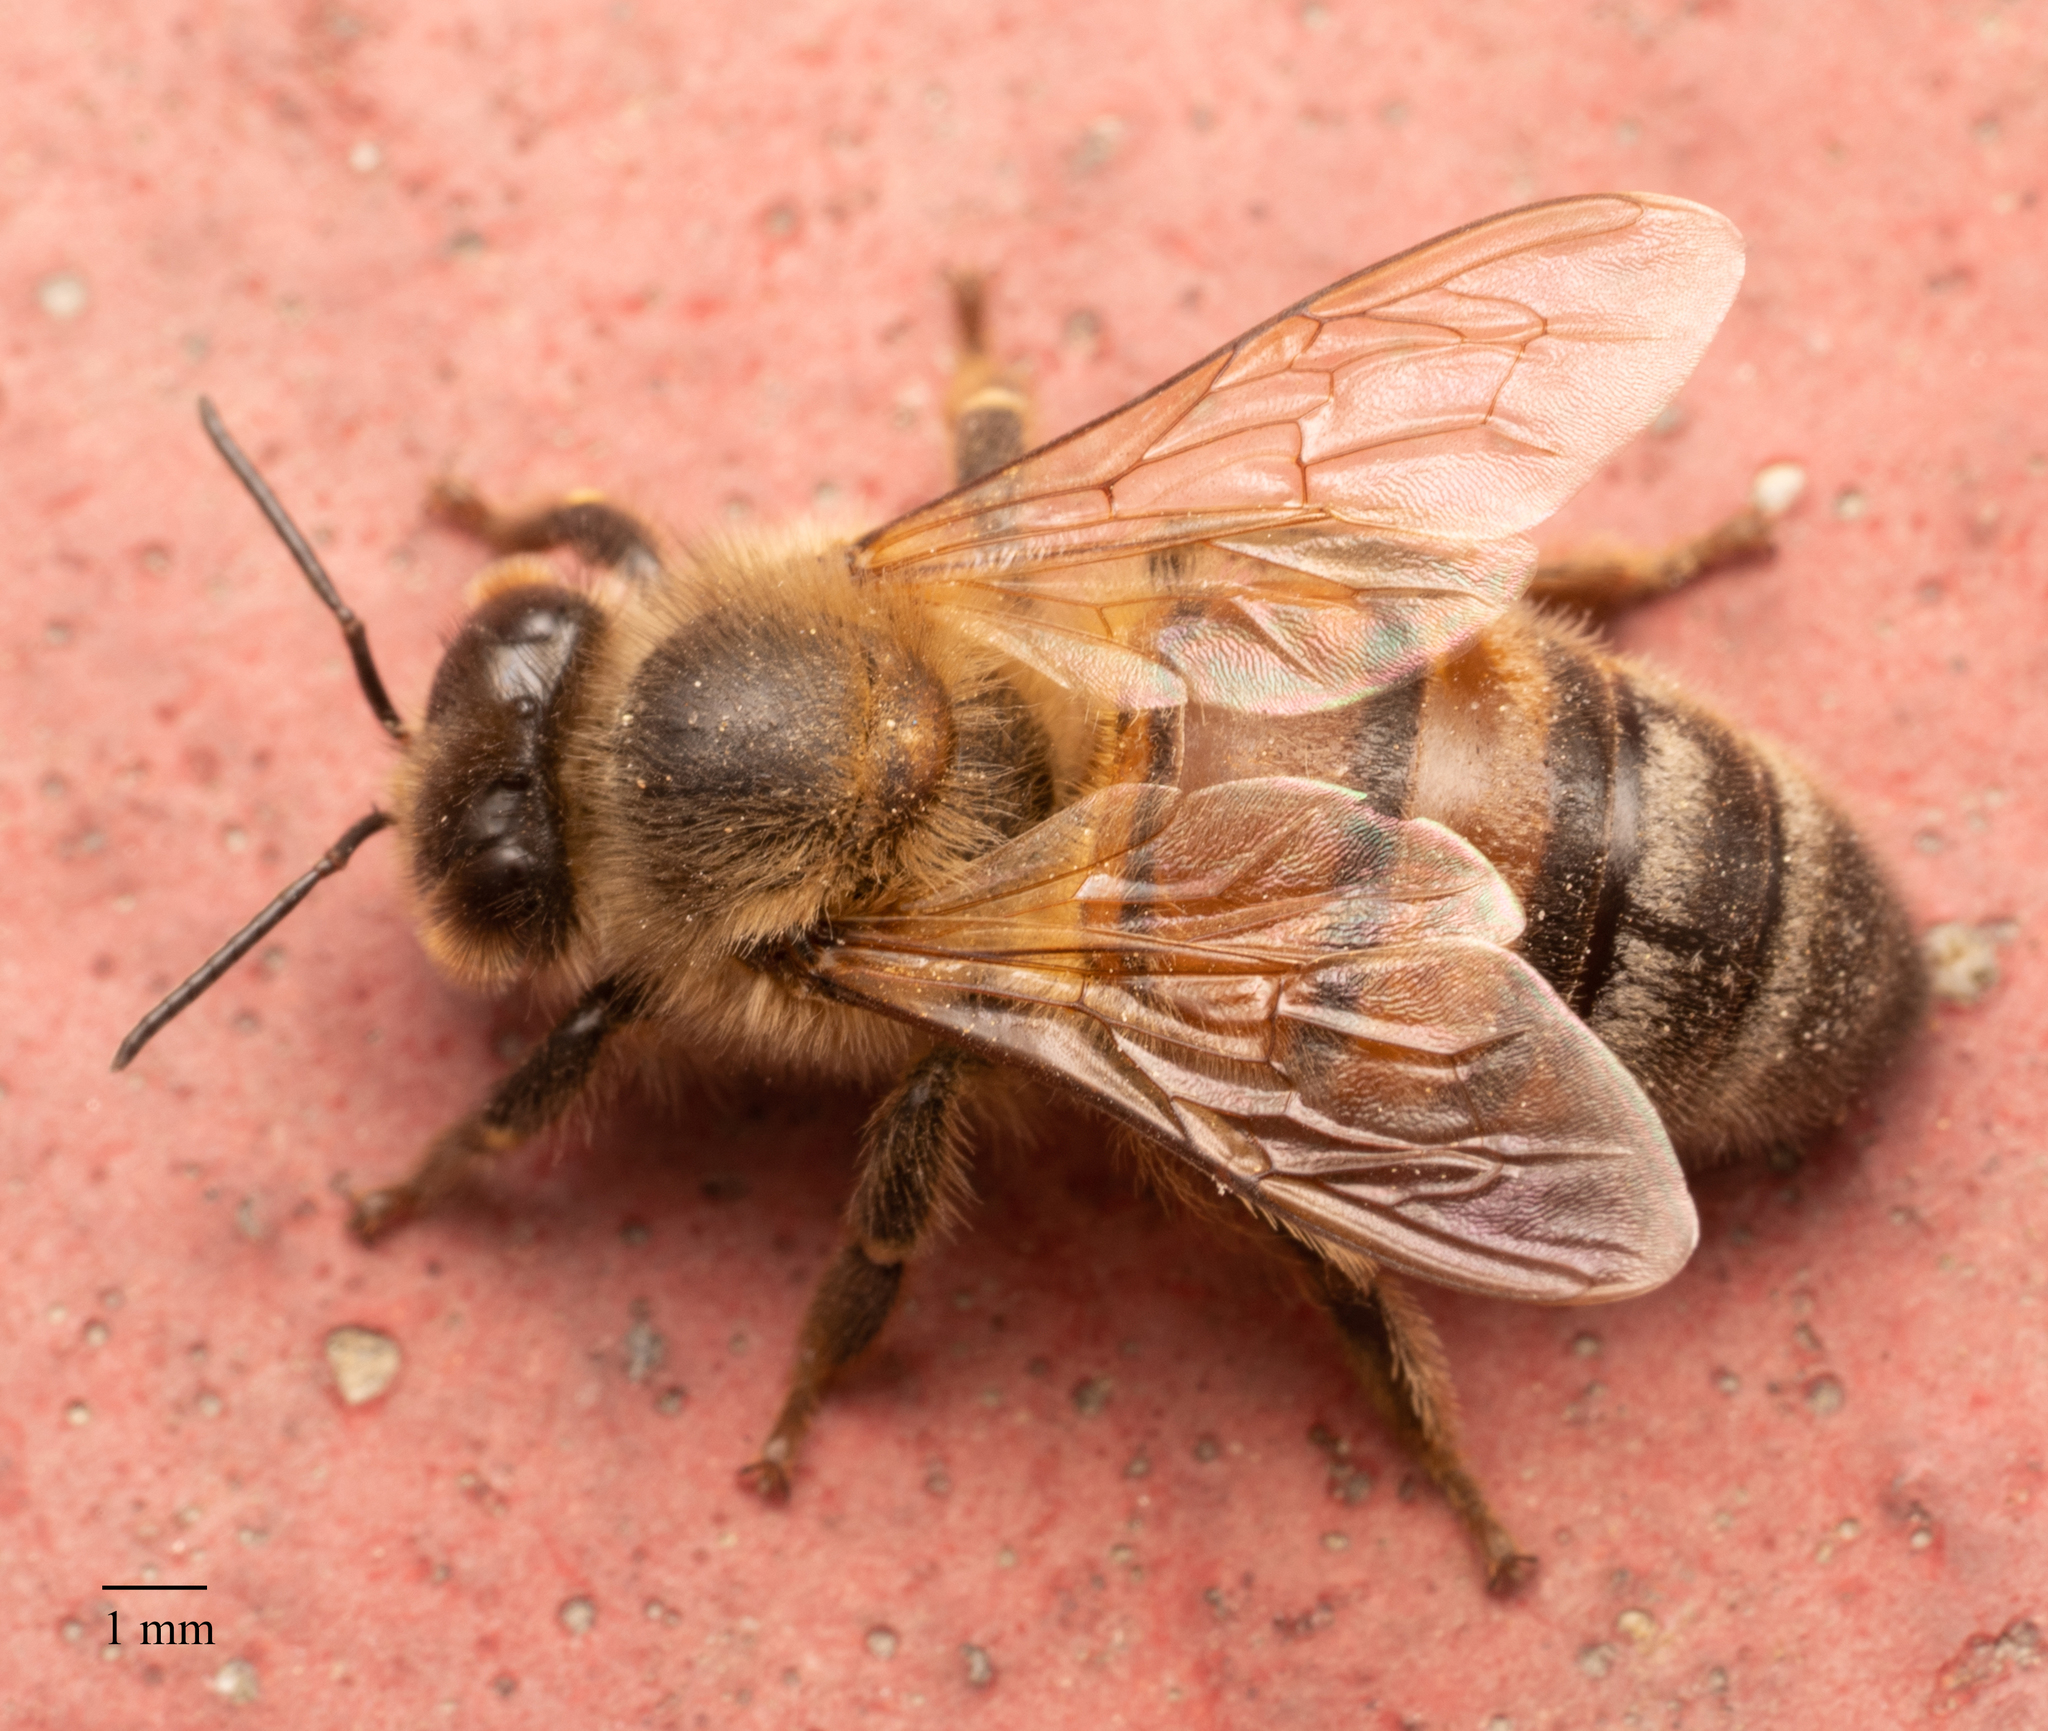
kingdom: Animalia
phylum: Arthropoda
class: Insecta
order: Hymenoptera
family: Apidae
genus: Apis
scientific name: Apis mellifera
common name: Honey bee
